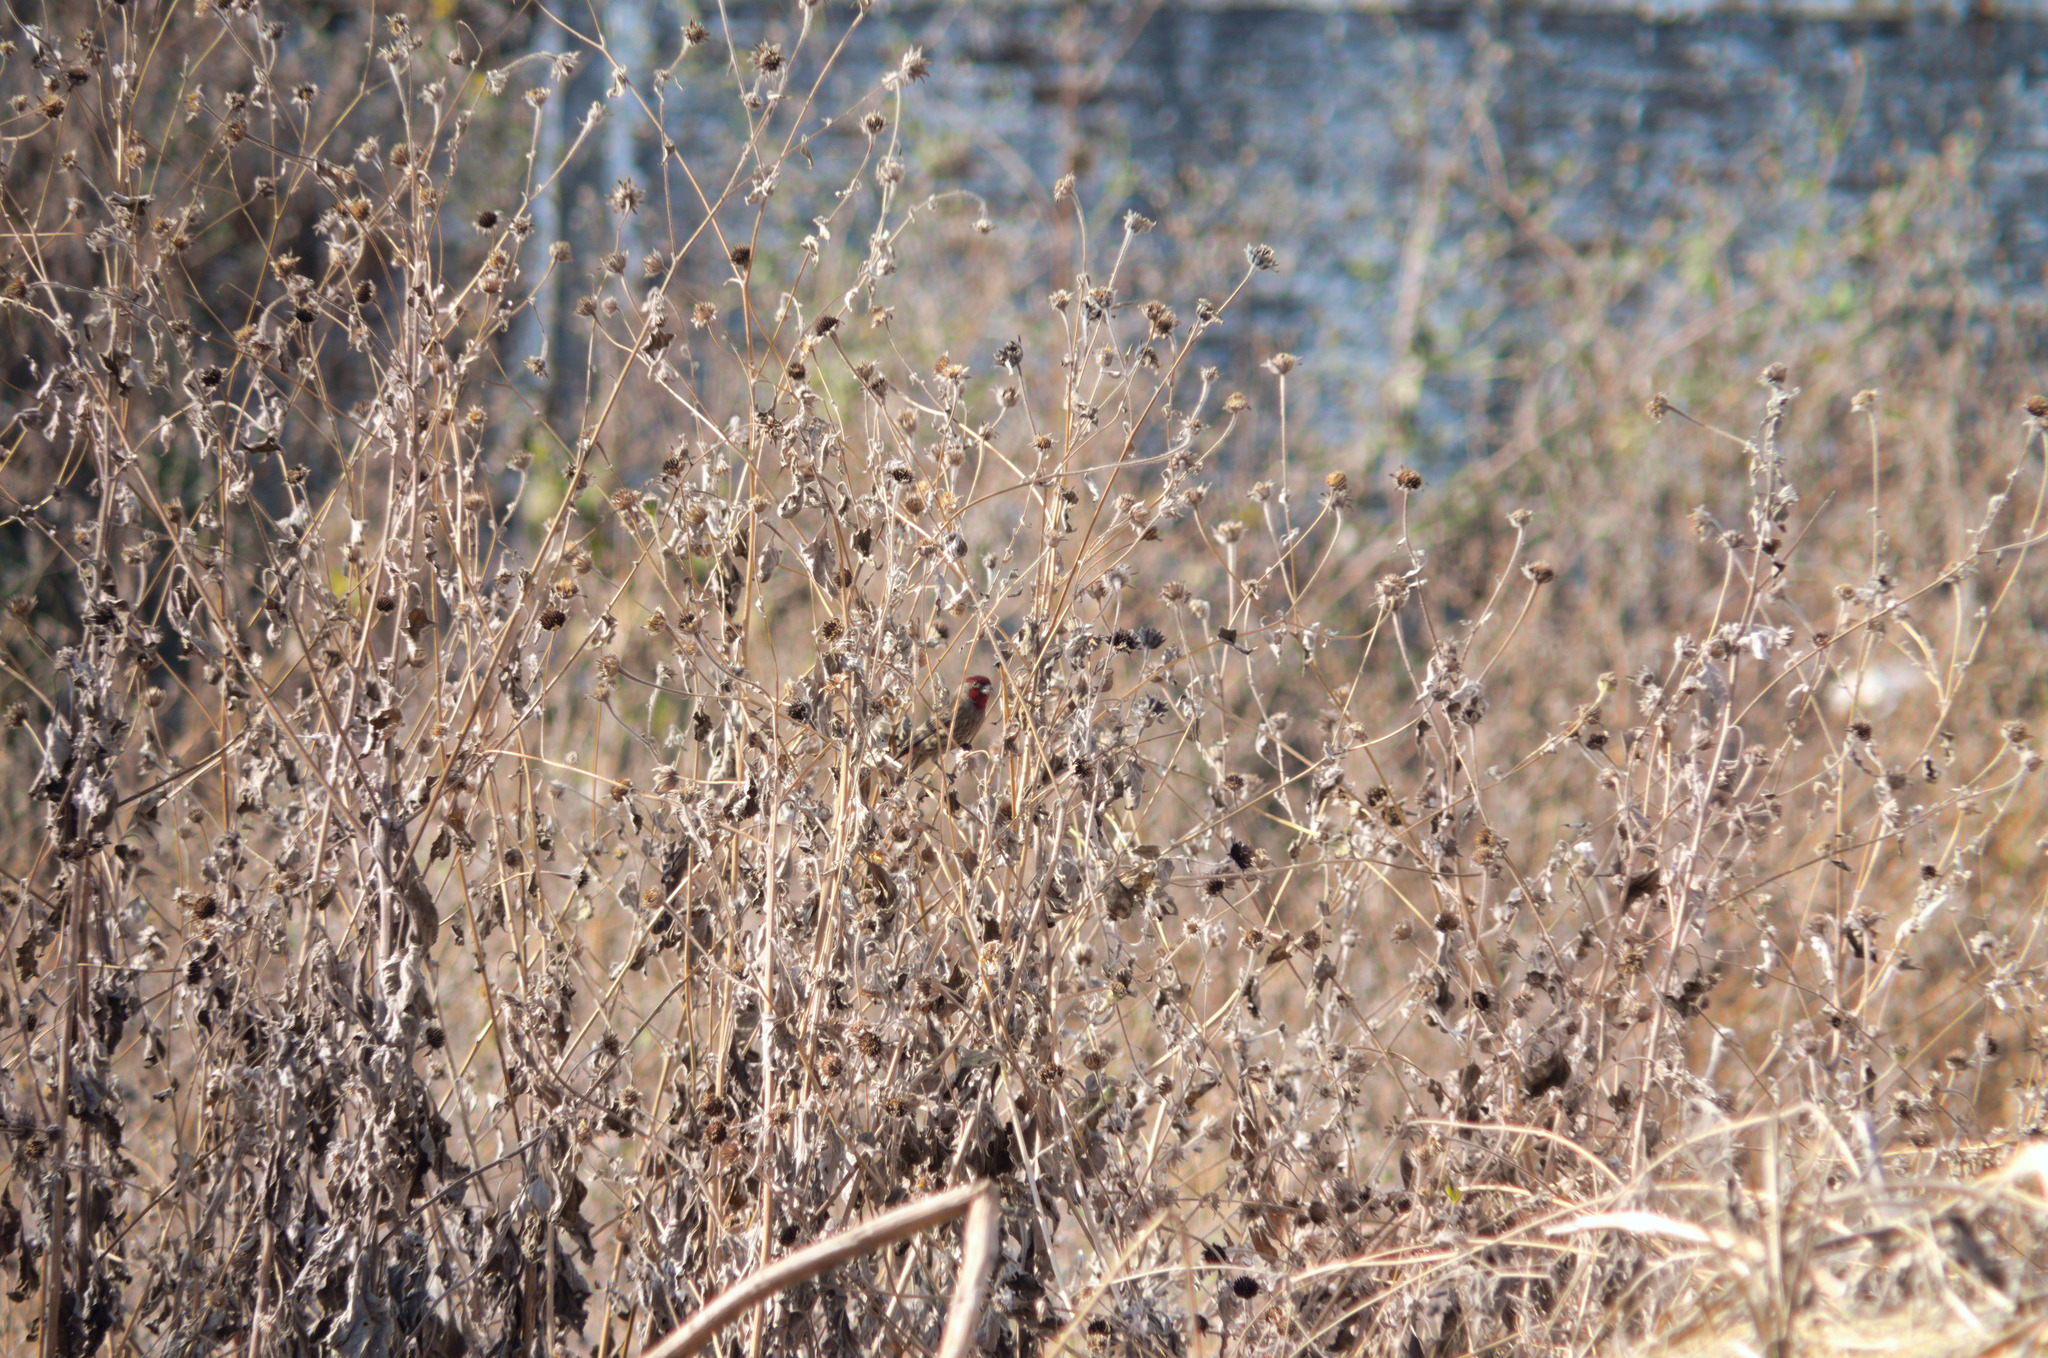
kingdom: Animalia
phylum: Chordata
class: Aves
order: Passeriformes
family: Fringillidae
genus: Haemorhous
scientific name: Haemorhous mexicanus
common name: House finch
